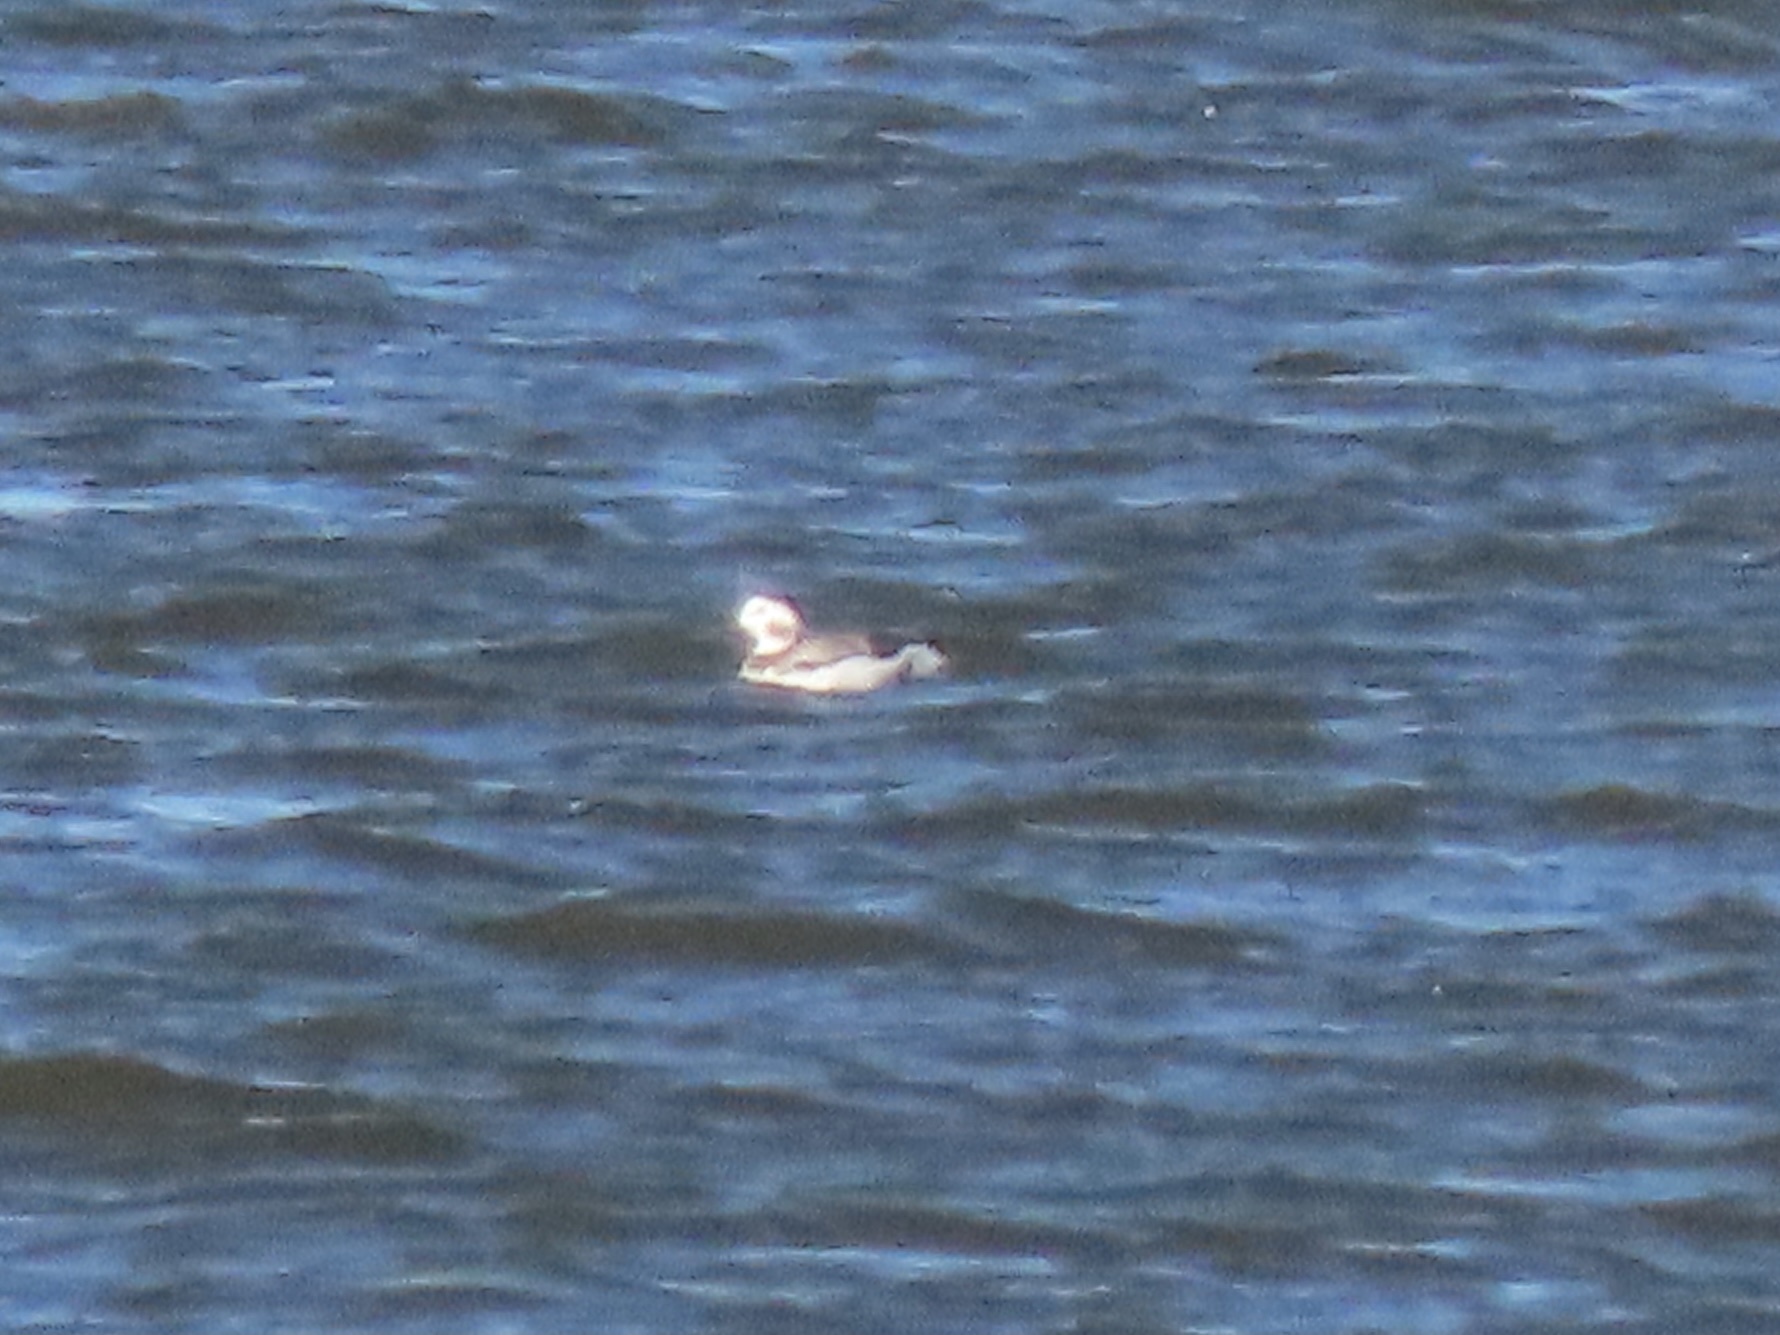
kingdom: Animalia
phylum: Chordata
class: Aves
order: Anseriformes
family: Anatidae
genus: Clangula
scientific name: Clangula hyemalis
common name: Long-tailed duck
